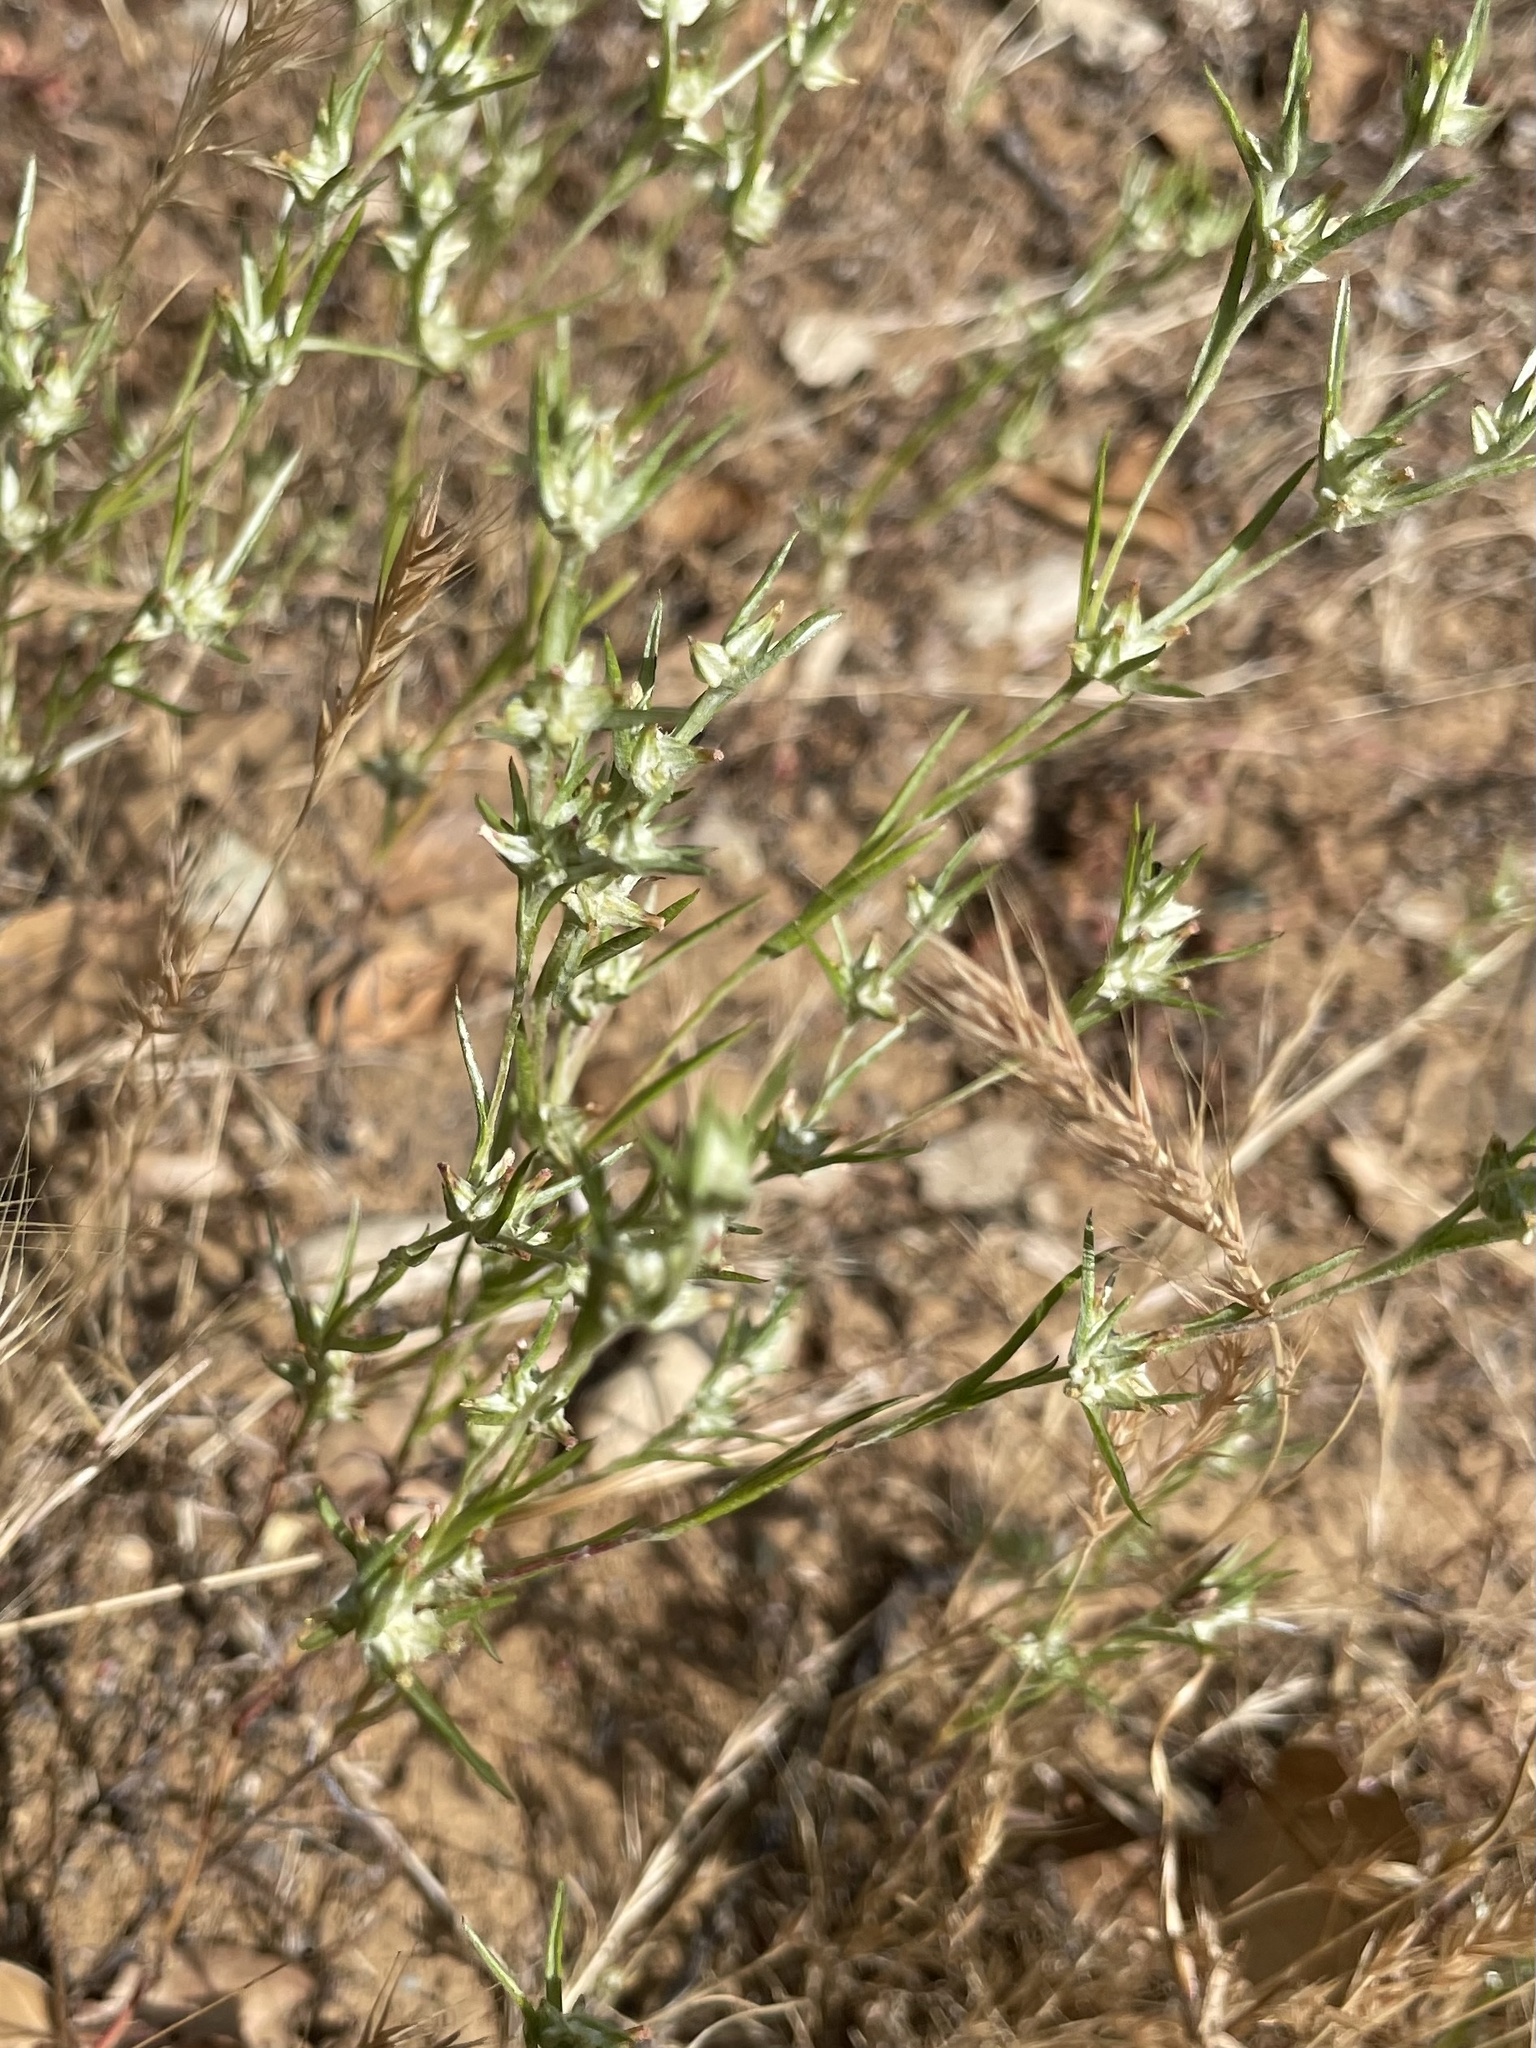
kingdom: Plantae
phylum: Tracheophyta
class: Magnoliopsida
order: Asterales
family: Asteraceae
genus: Logfia
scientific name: Logfia gallica
